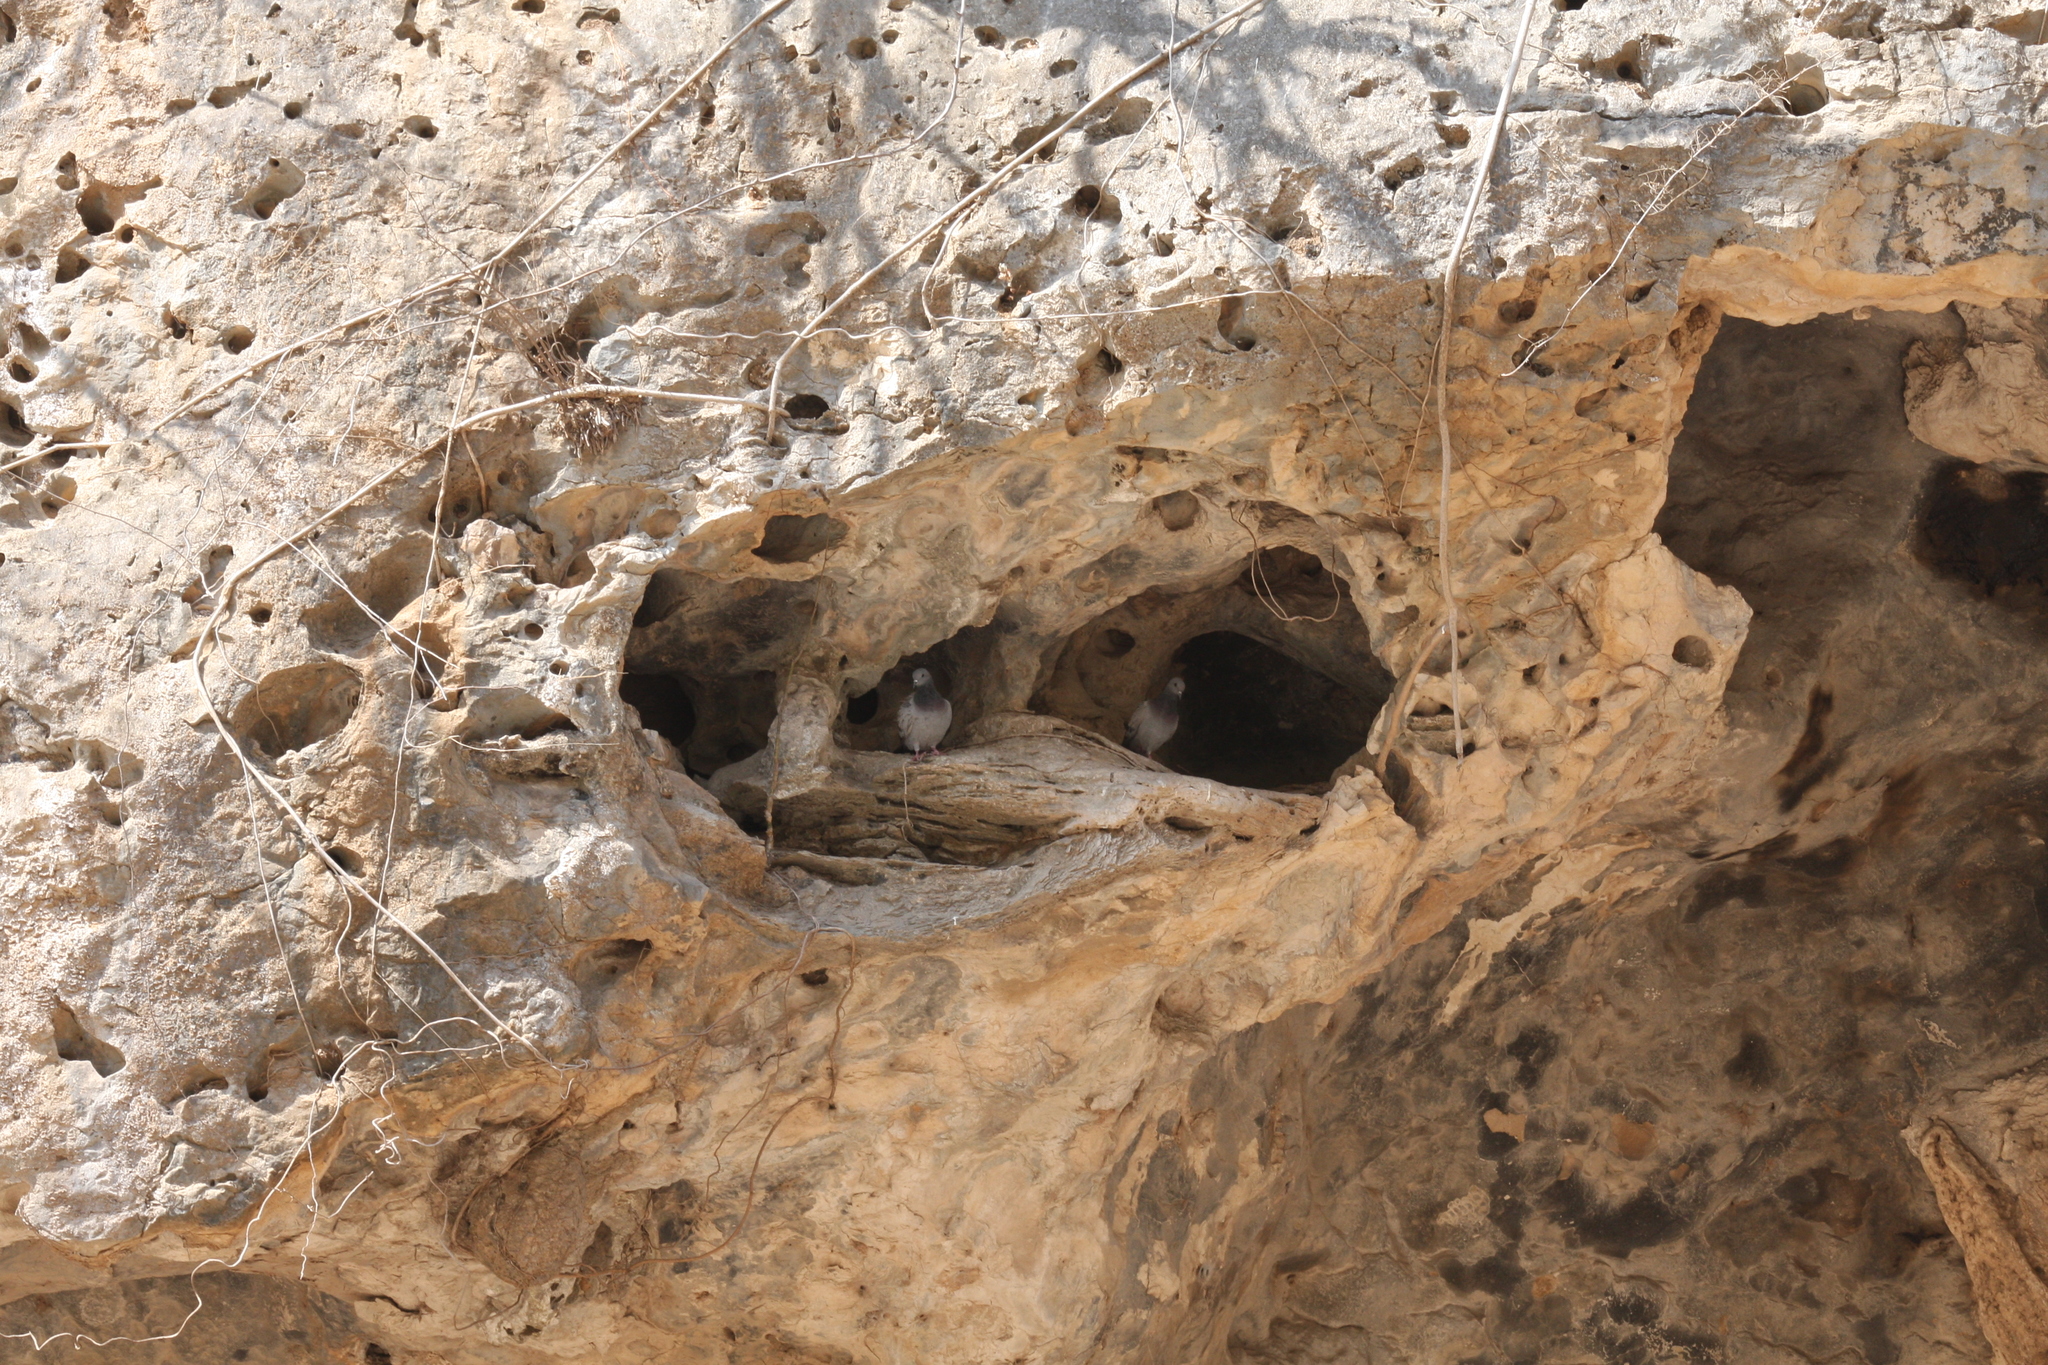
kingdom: Animalia
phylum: Chordata
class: Aves
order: Columbiformes
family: Columbidae
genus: Columba
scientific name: Columba livia
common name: Rock pigeon
